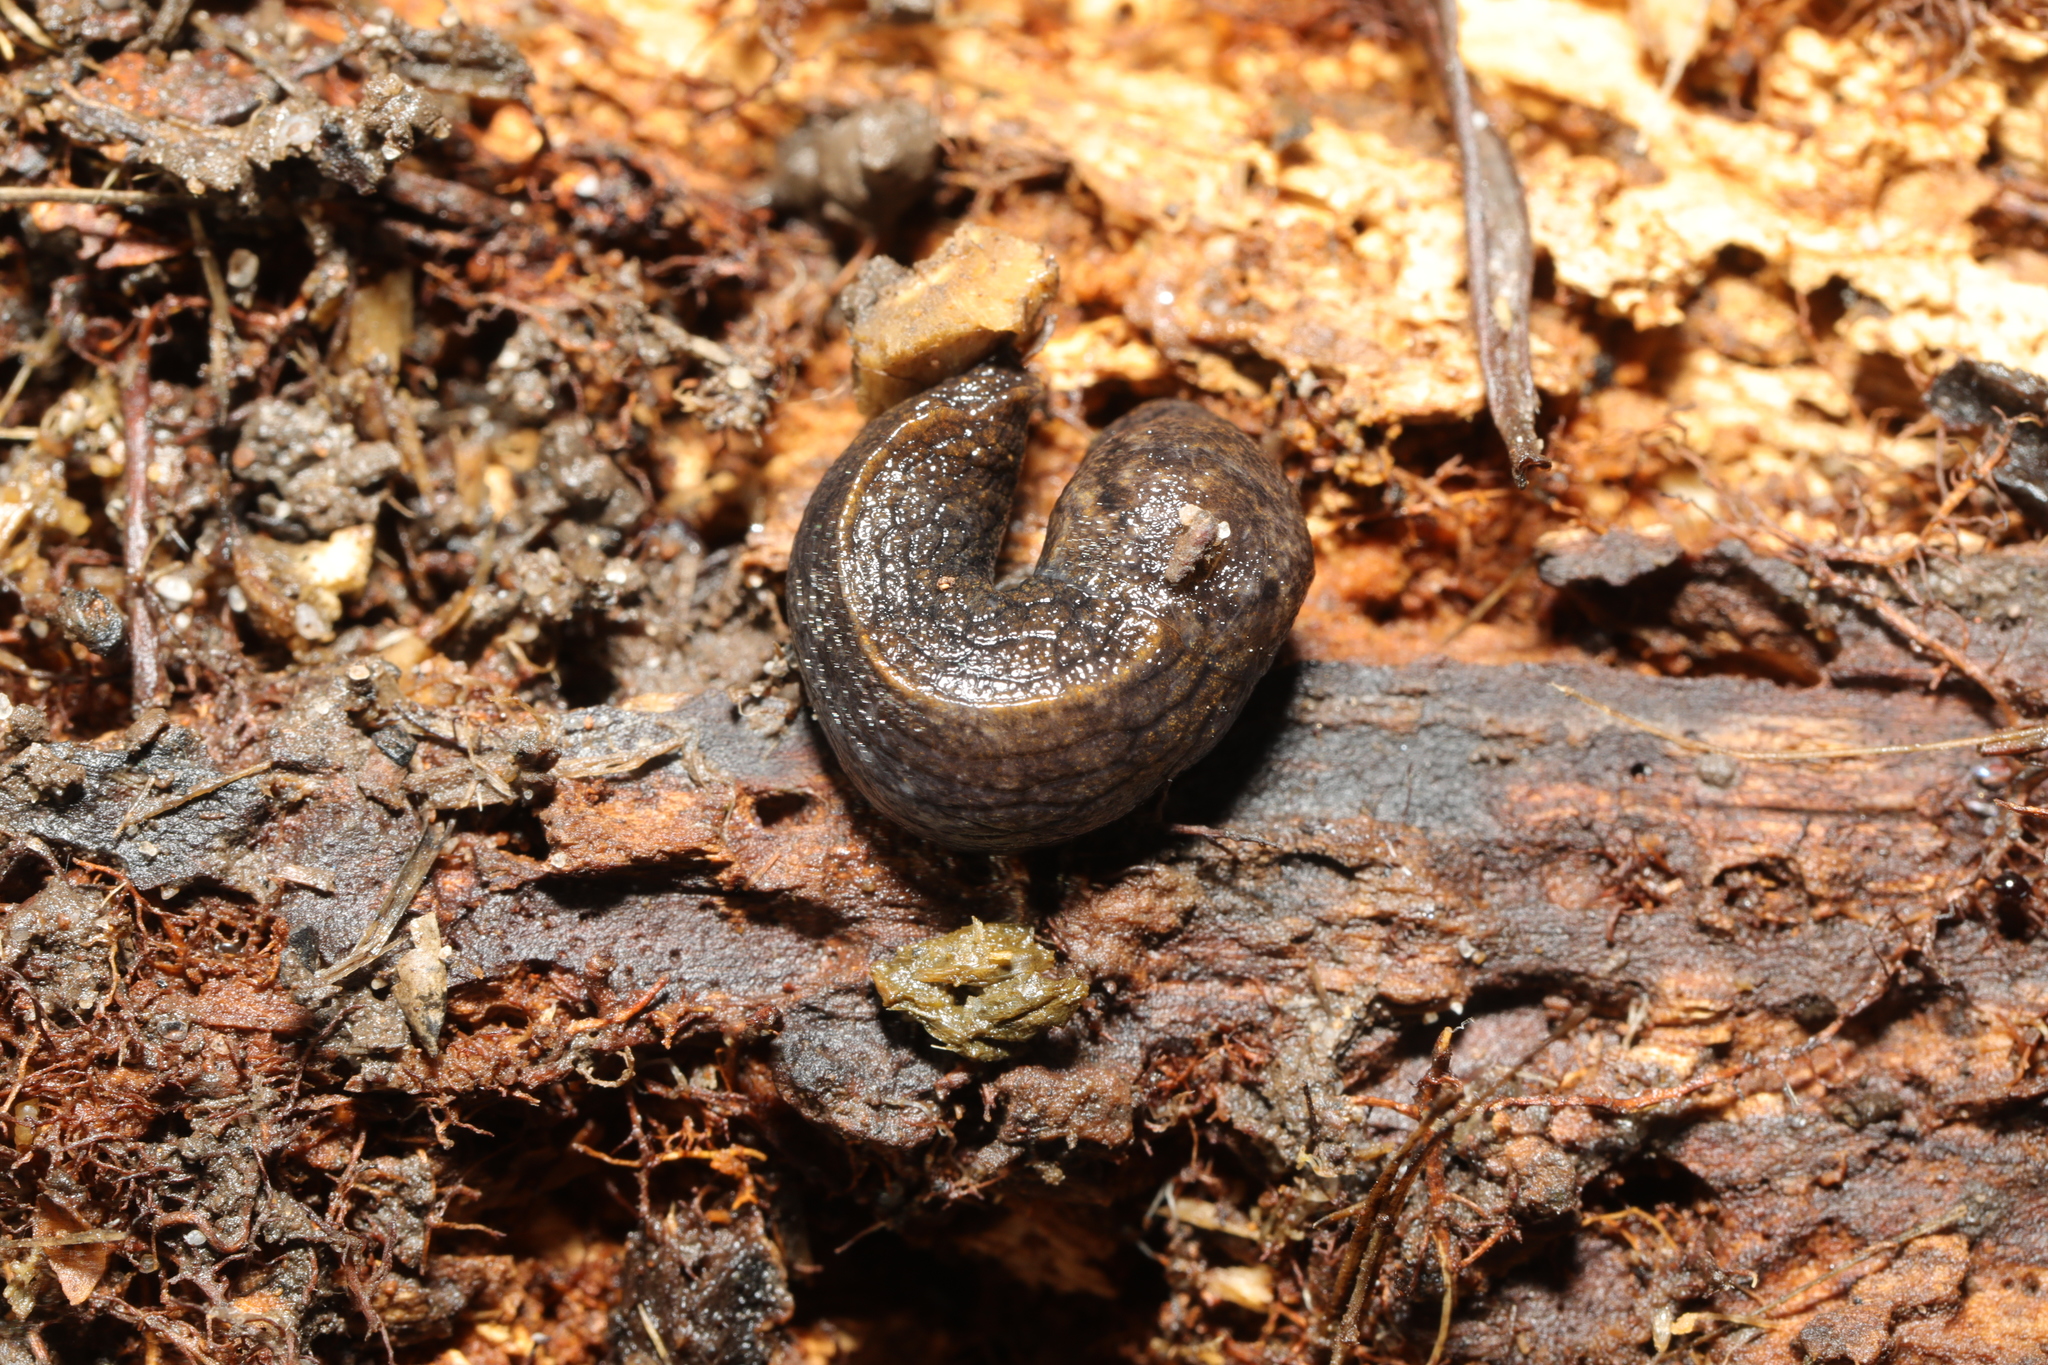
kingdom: Animalia
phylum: Mollusca
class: Gastropoda
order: Stylommatophora
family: Milacidae
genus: Tandonia
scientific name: Tandonia budapestensis
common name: Budapest slug
